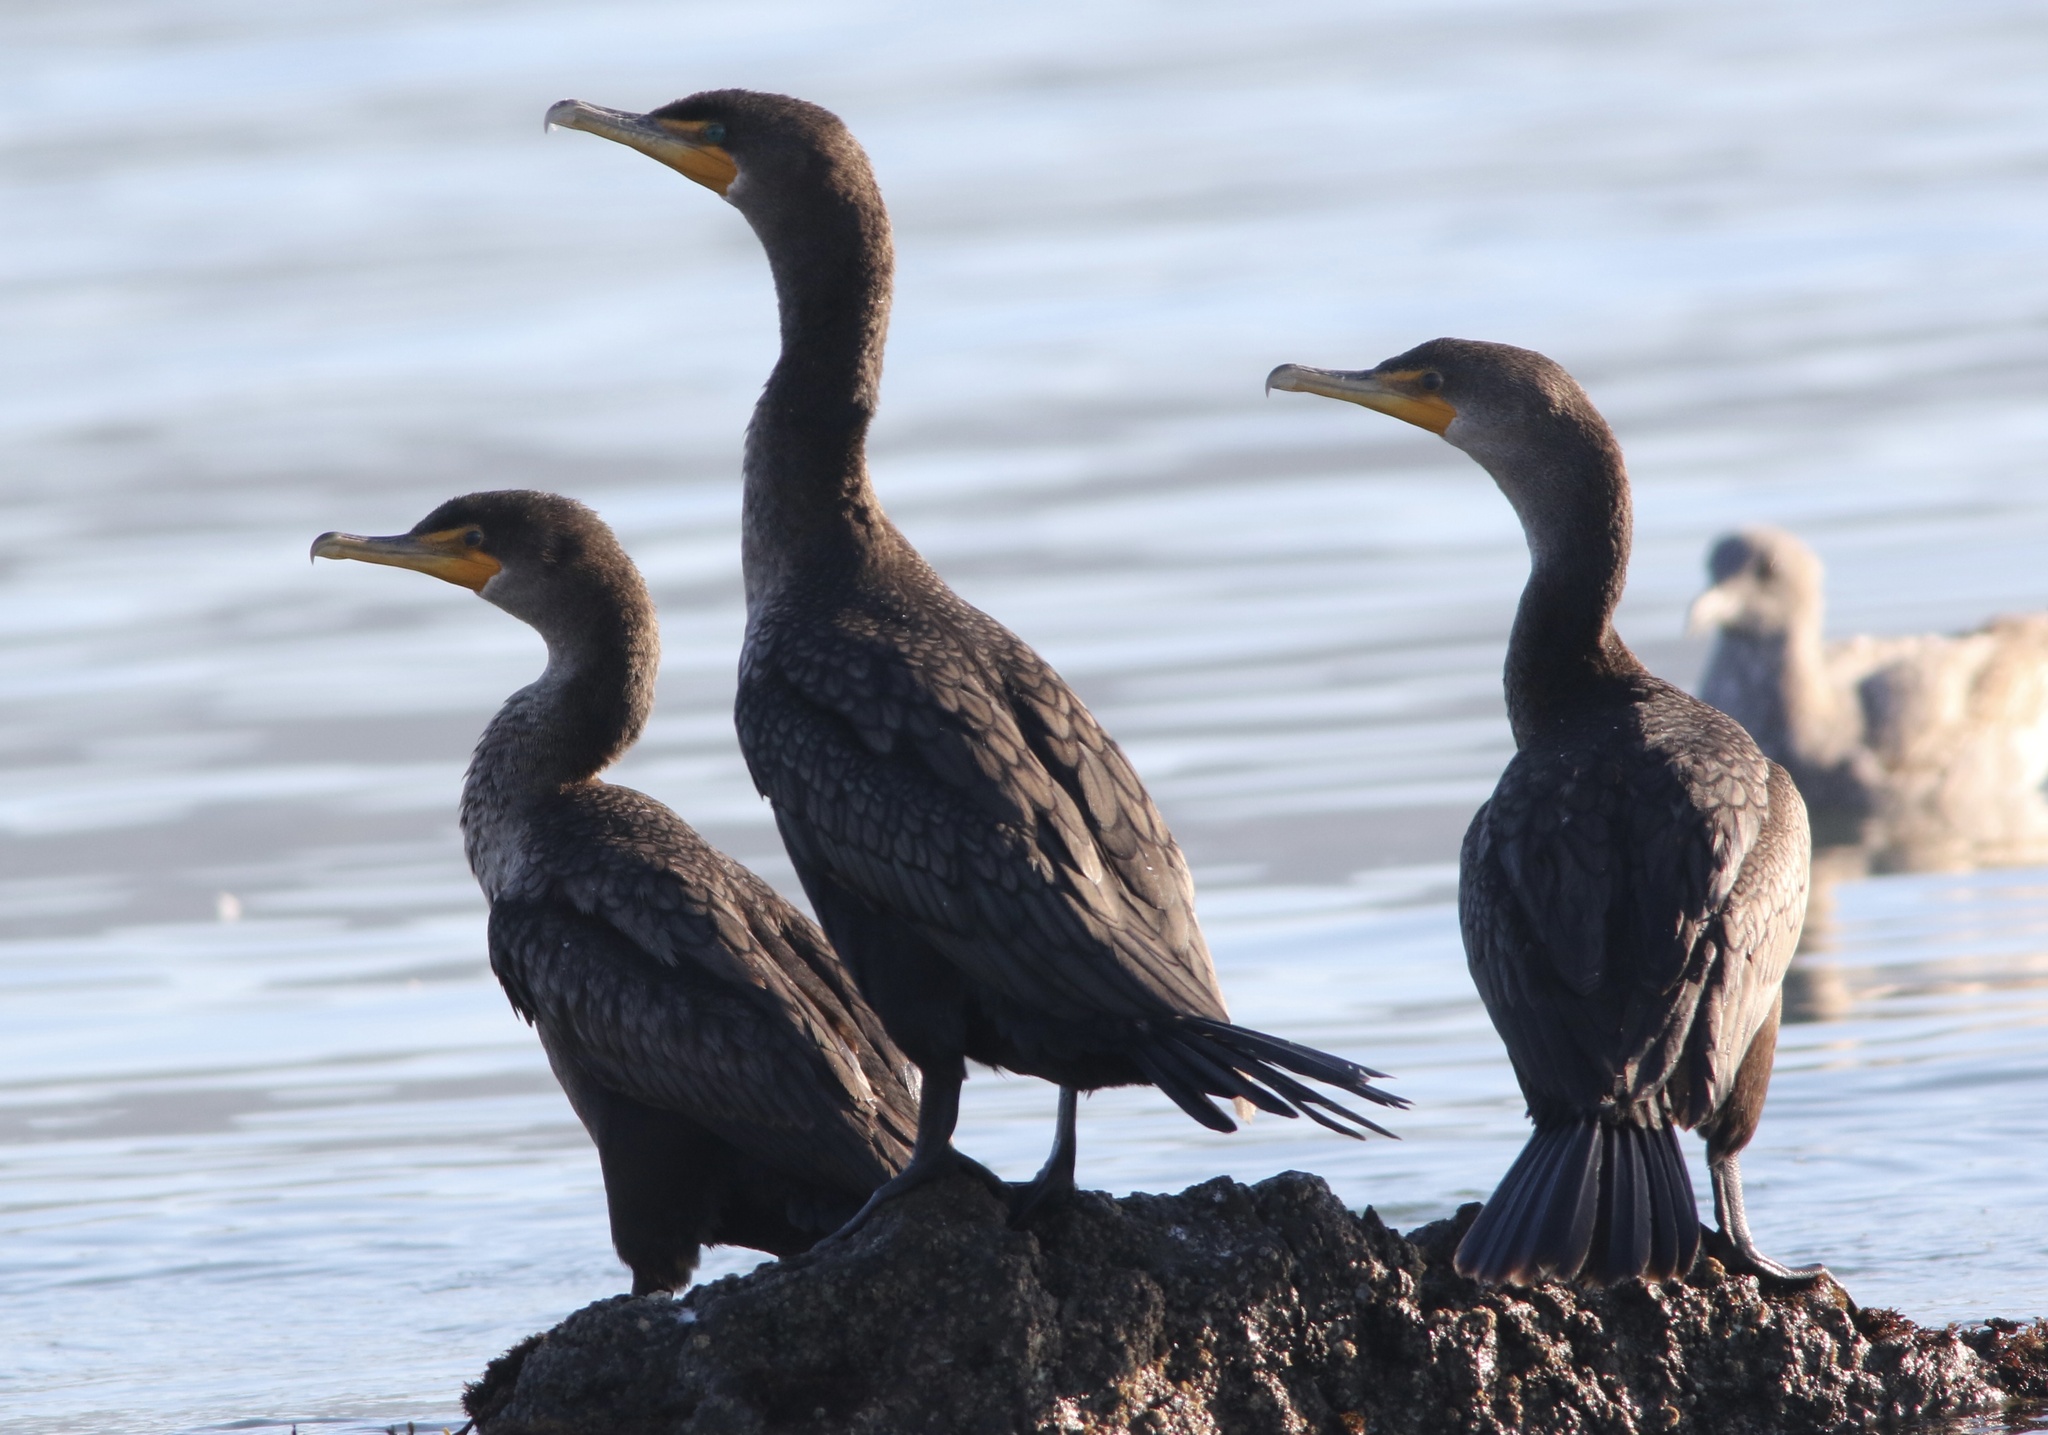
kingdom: Animalia
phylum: Chordata
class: Aves
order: Suliformes
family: Phalacrocoracidae
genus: Phalacrocorax
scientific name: Phalacrocorax auritus
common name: Double-crested cormorant
